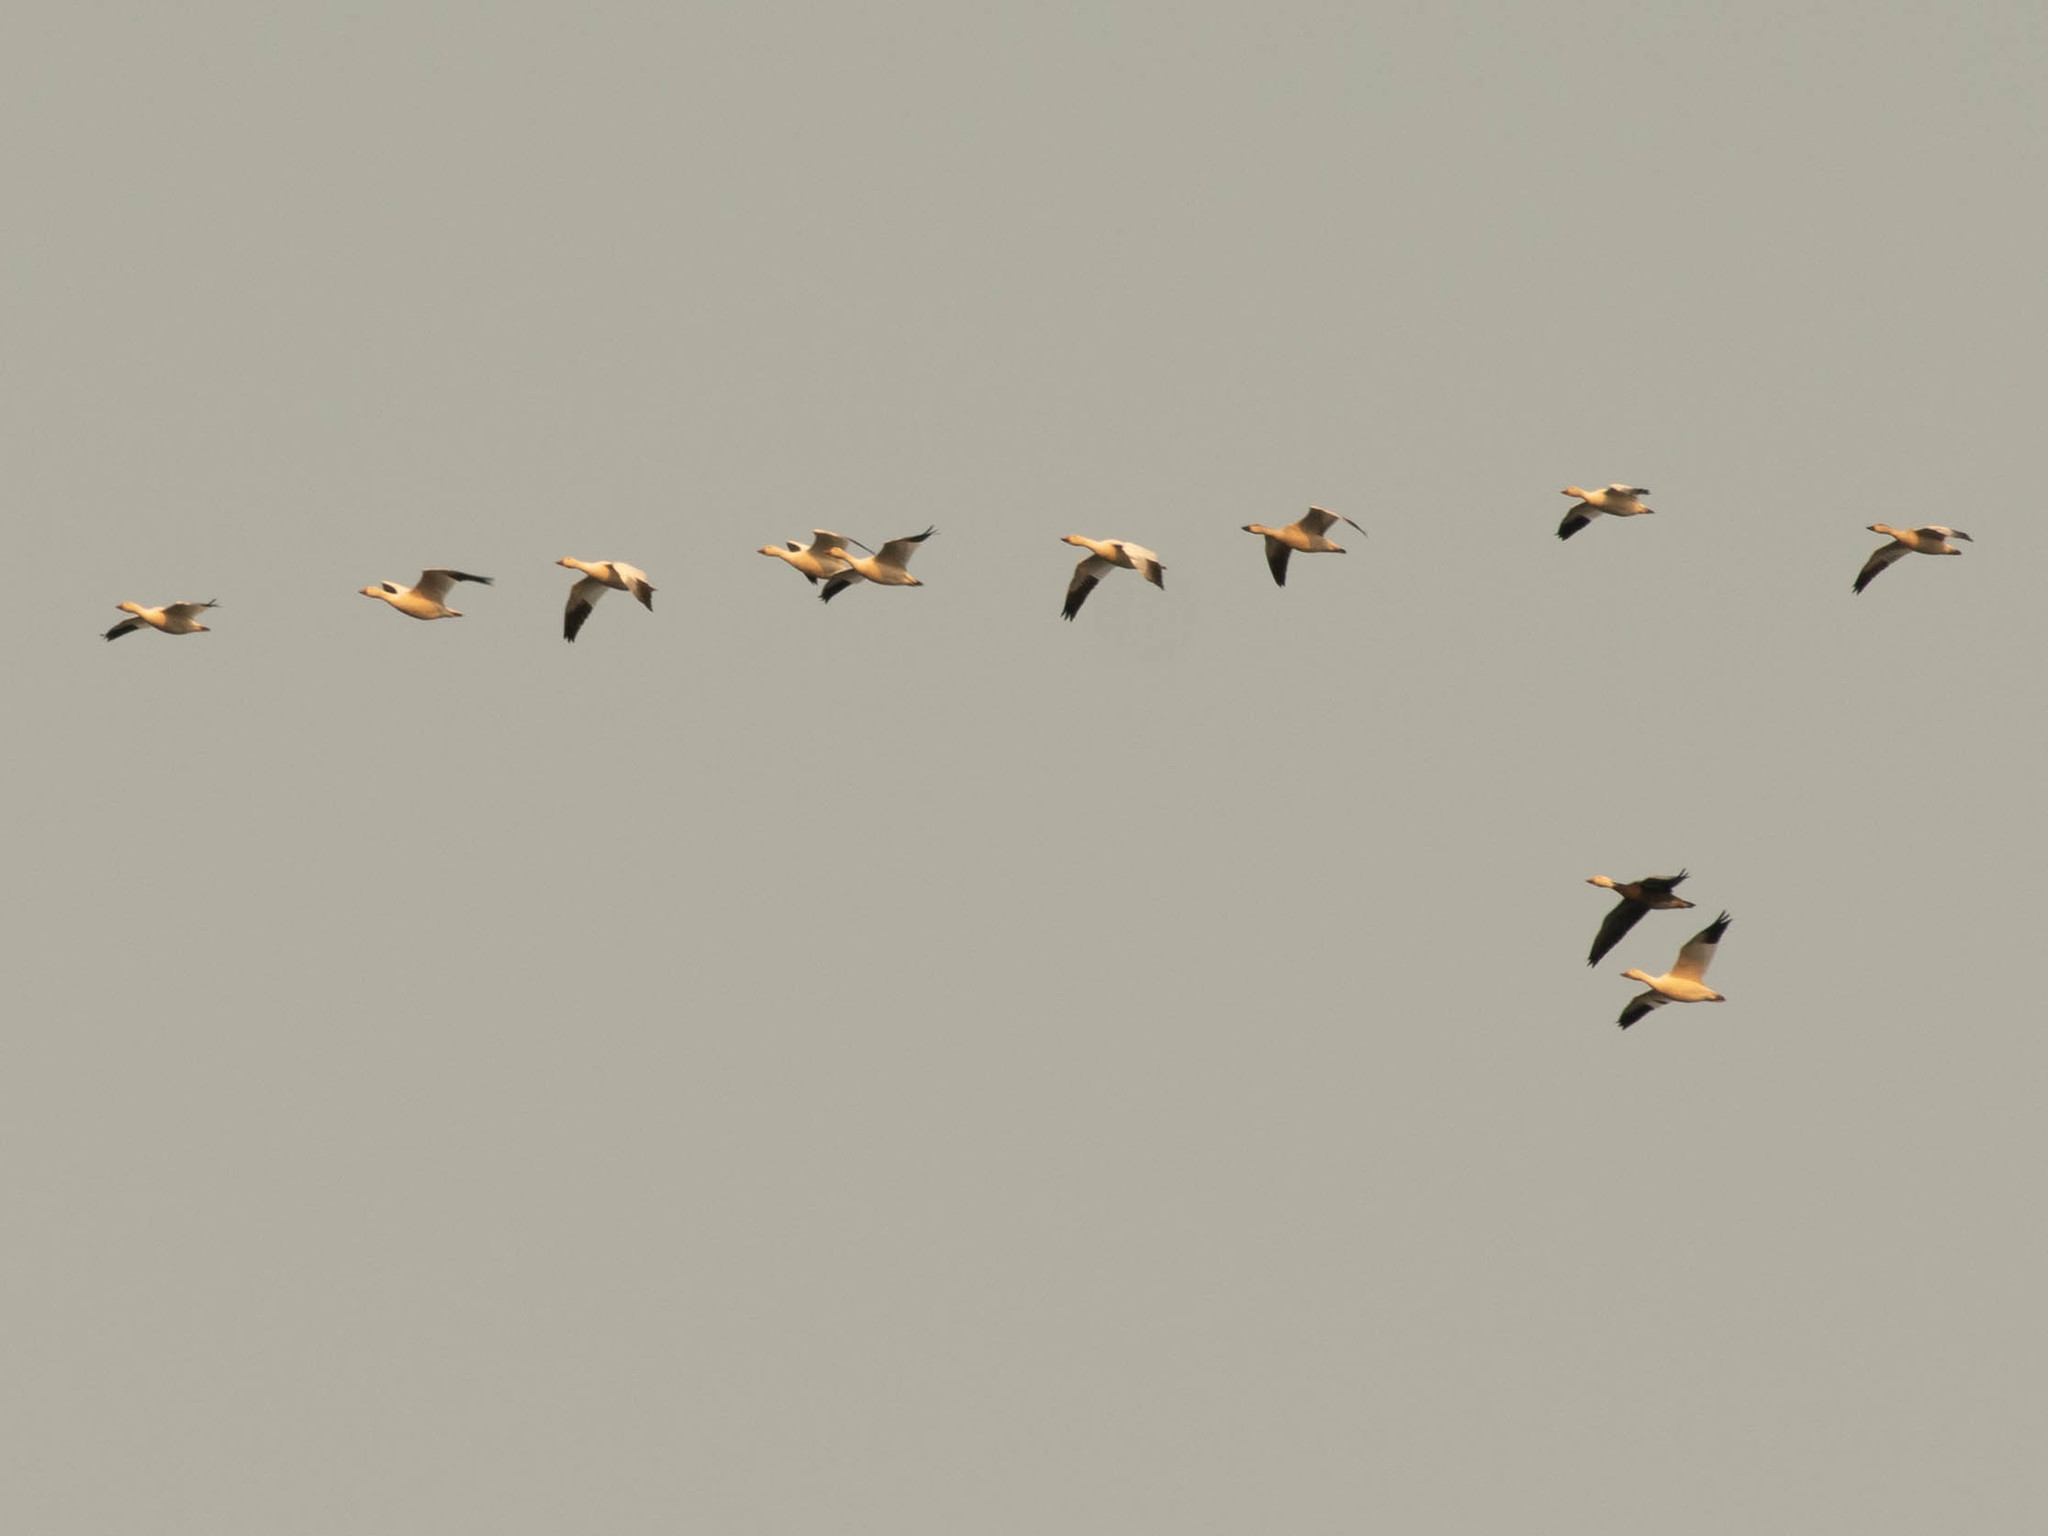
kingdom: Animalia
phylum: Chordata
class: Aves
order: Anseriformes
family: Anatidae
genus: Anser
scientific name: Anser caerulescens
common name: Snow goose
